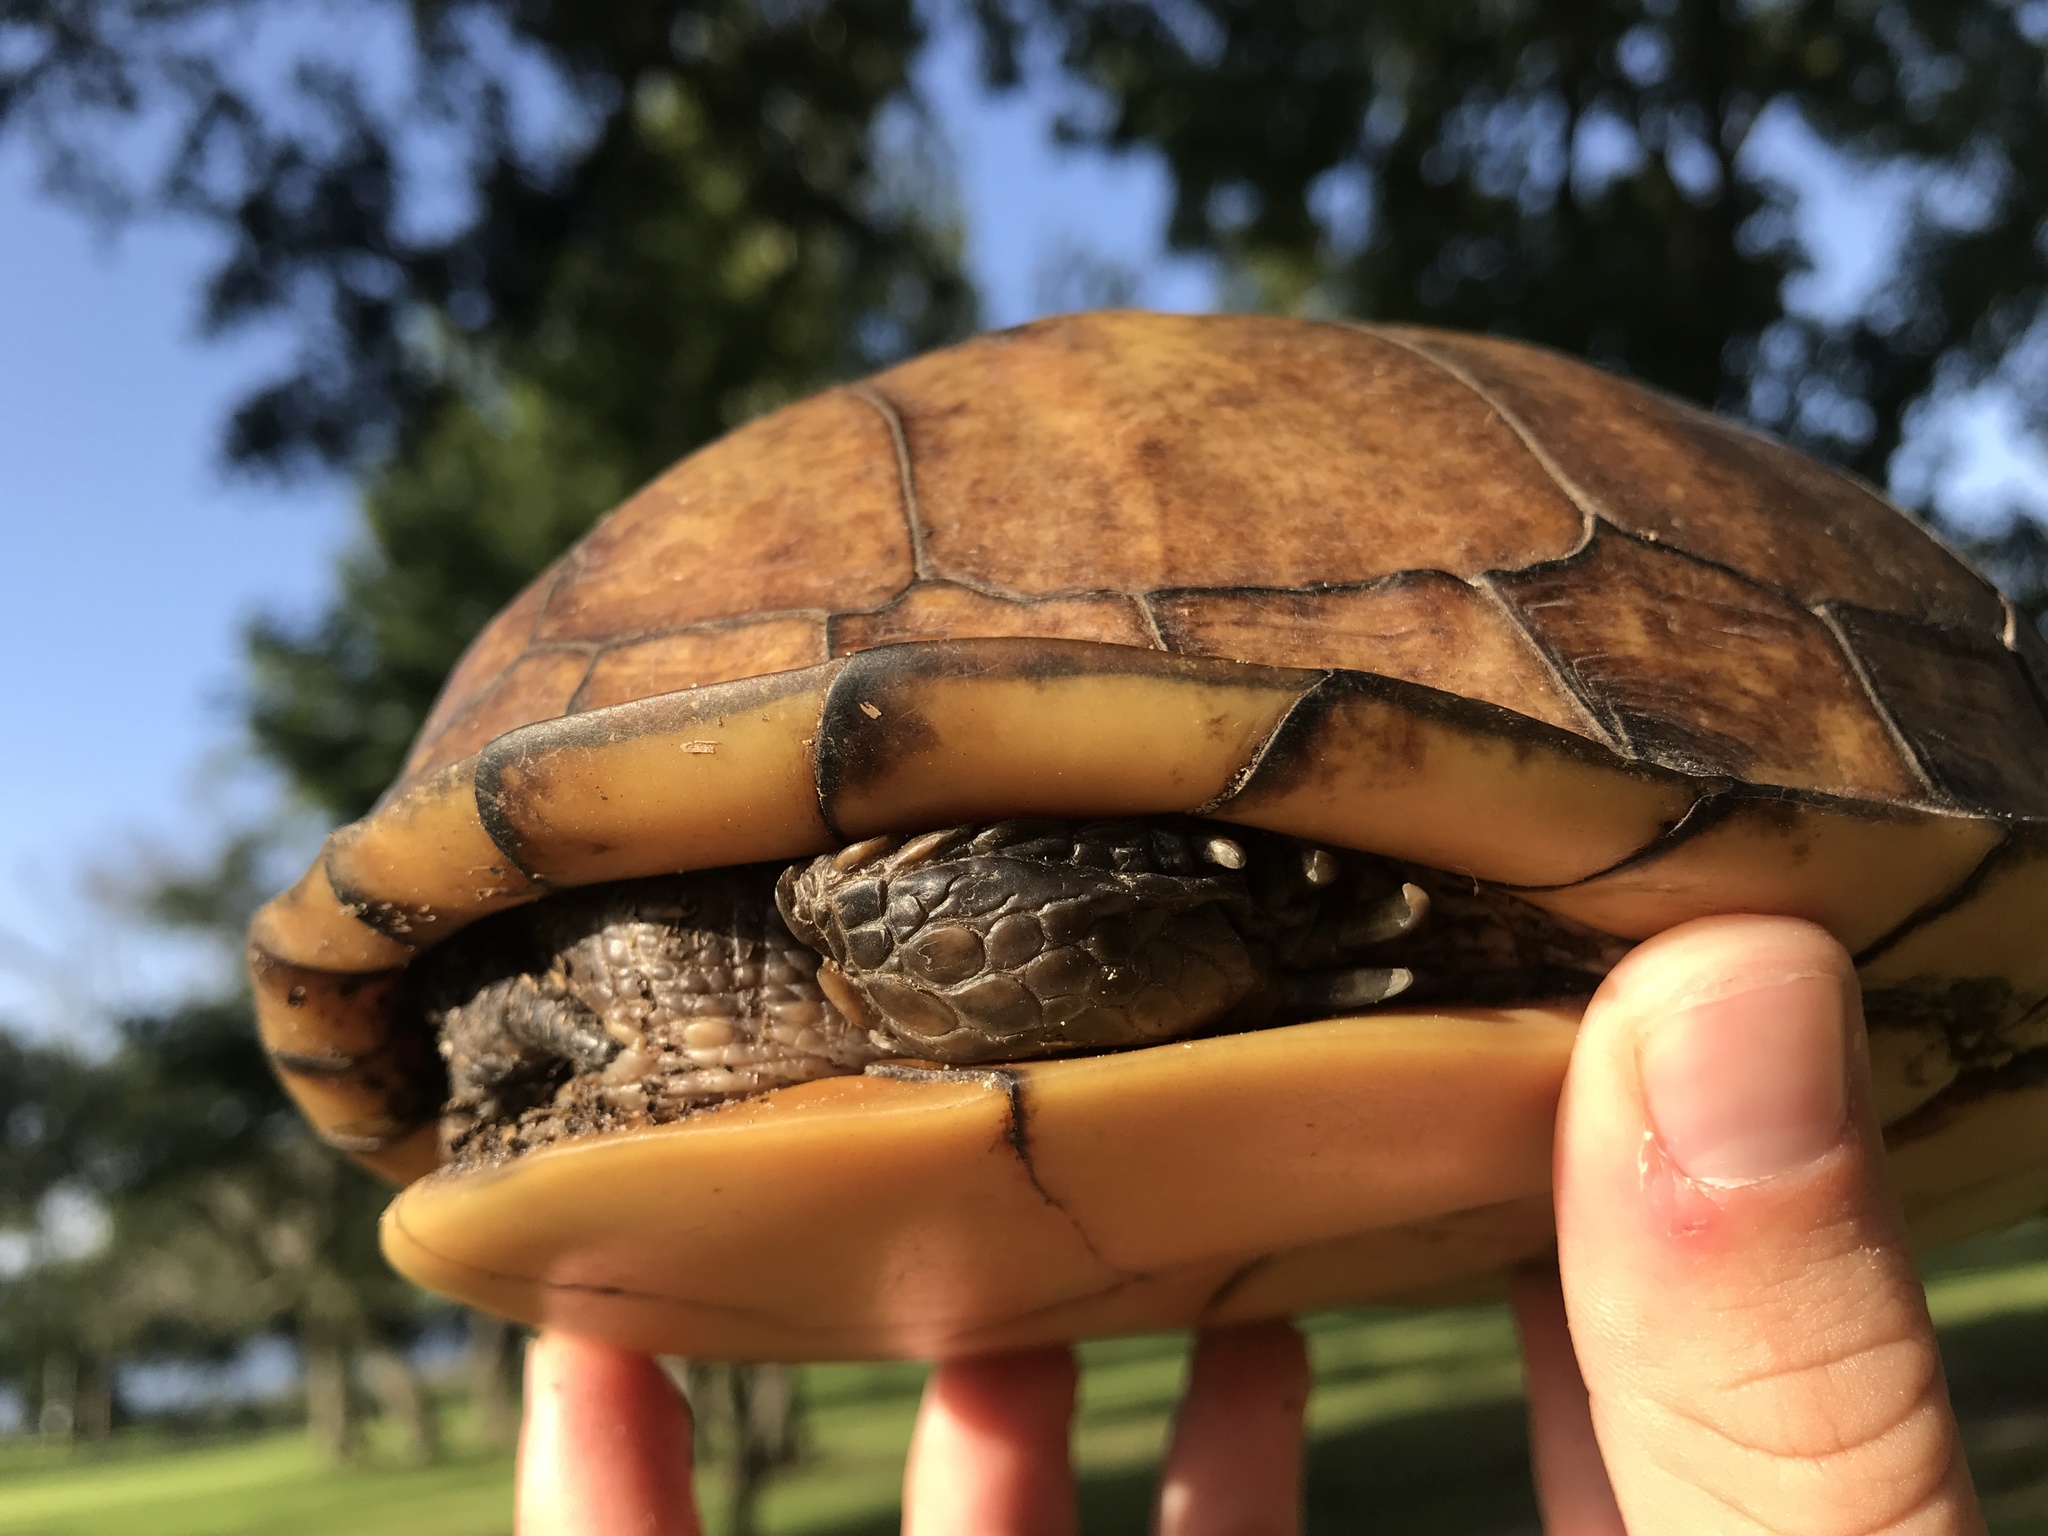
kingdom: Animalia
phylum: Chordata
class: Testudines
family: Emydidae
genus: Terrapene
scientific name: Terrapene carolina
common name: Common box turtle
